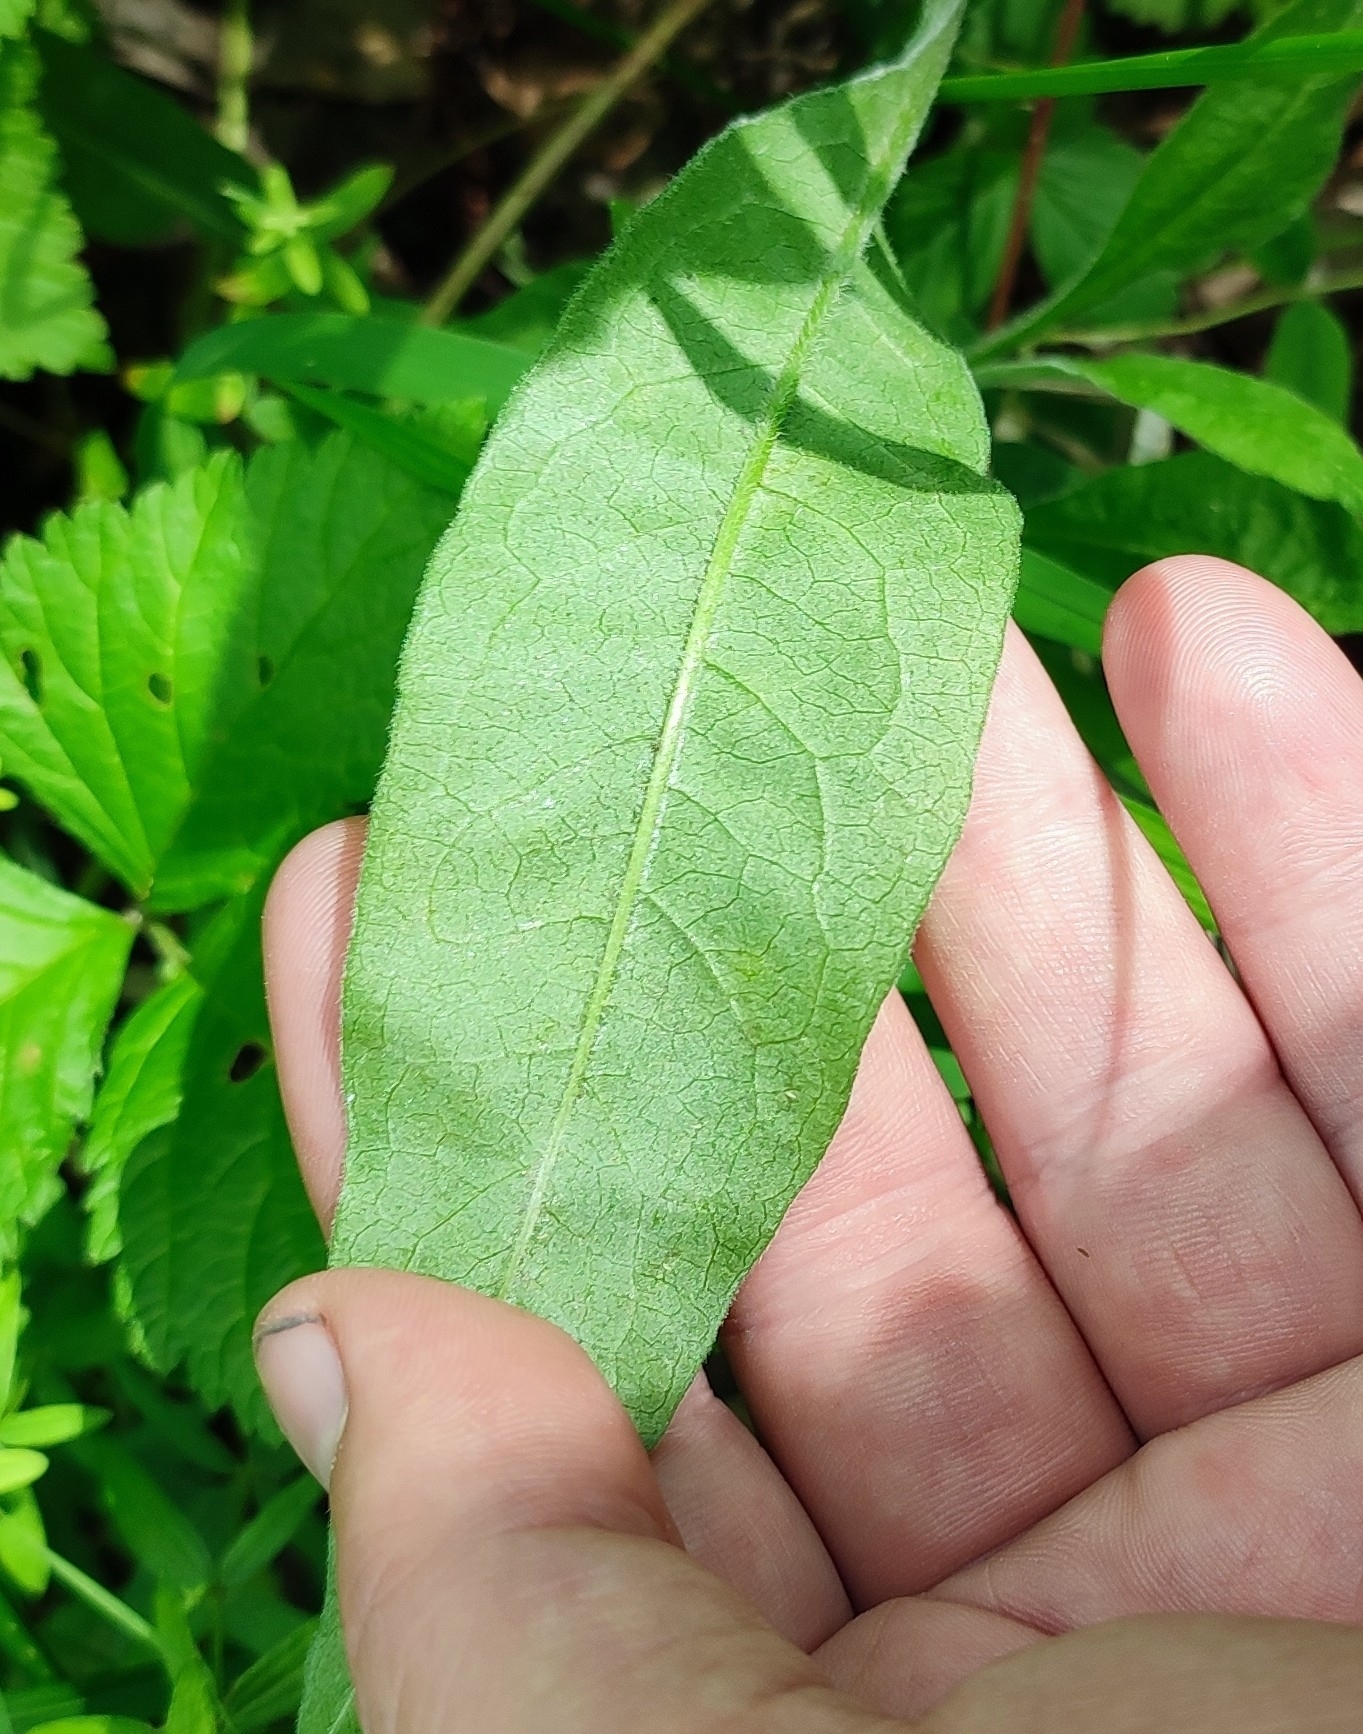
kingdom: Plantae
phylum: Tracheophyta
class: Magnoliopsida
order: Dipsacales
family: Caprifoliaceae
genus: Knautia
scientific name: Knautia arvensis
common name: Field scabiosa
